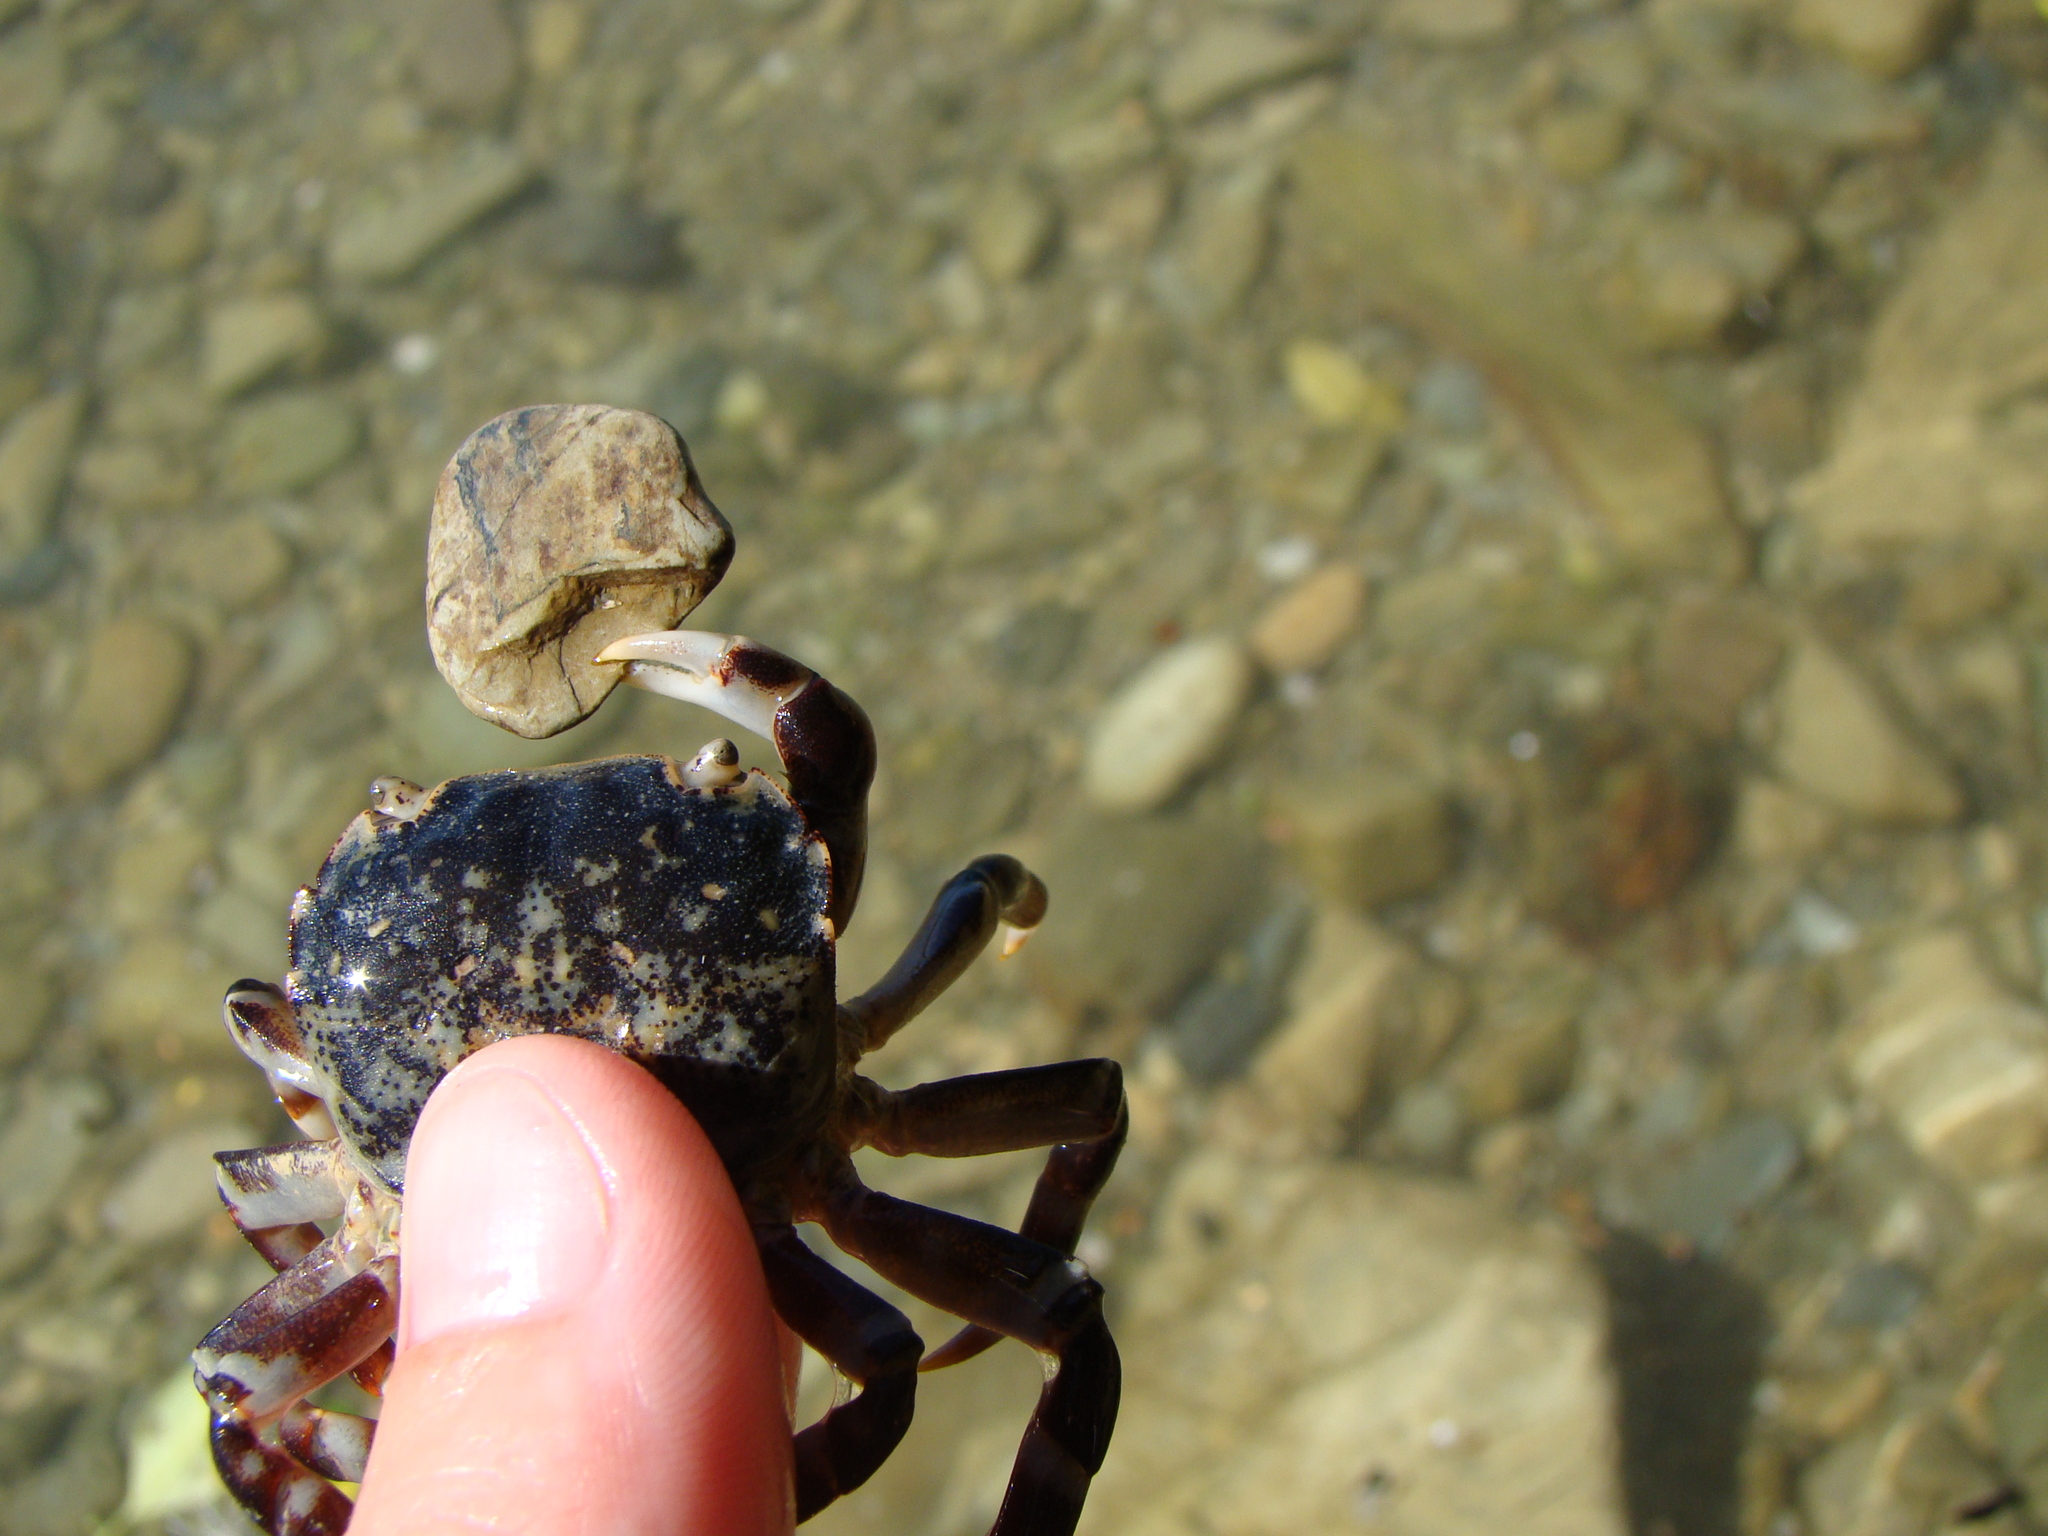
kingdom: Animalia
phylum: Arthropoda
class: Malacostraca
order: Decapoda
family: Varunidae
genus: Hemigrapsus
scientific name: Hemigrapsus sexdentatus
